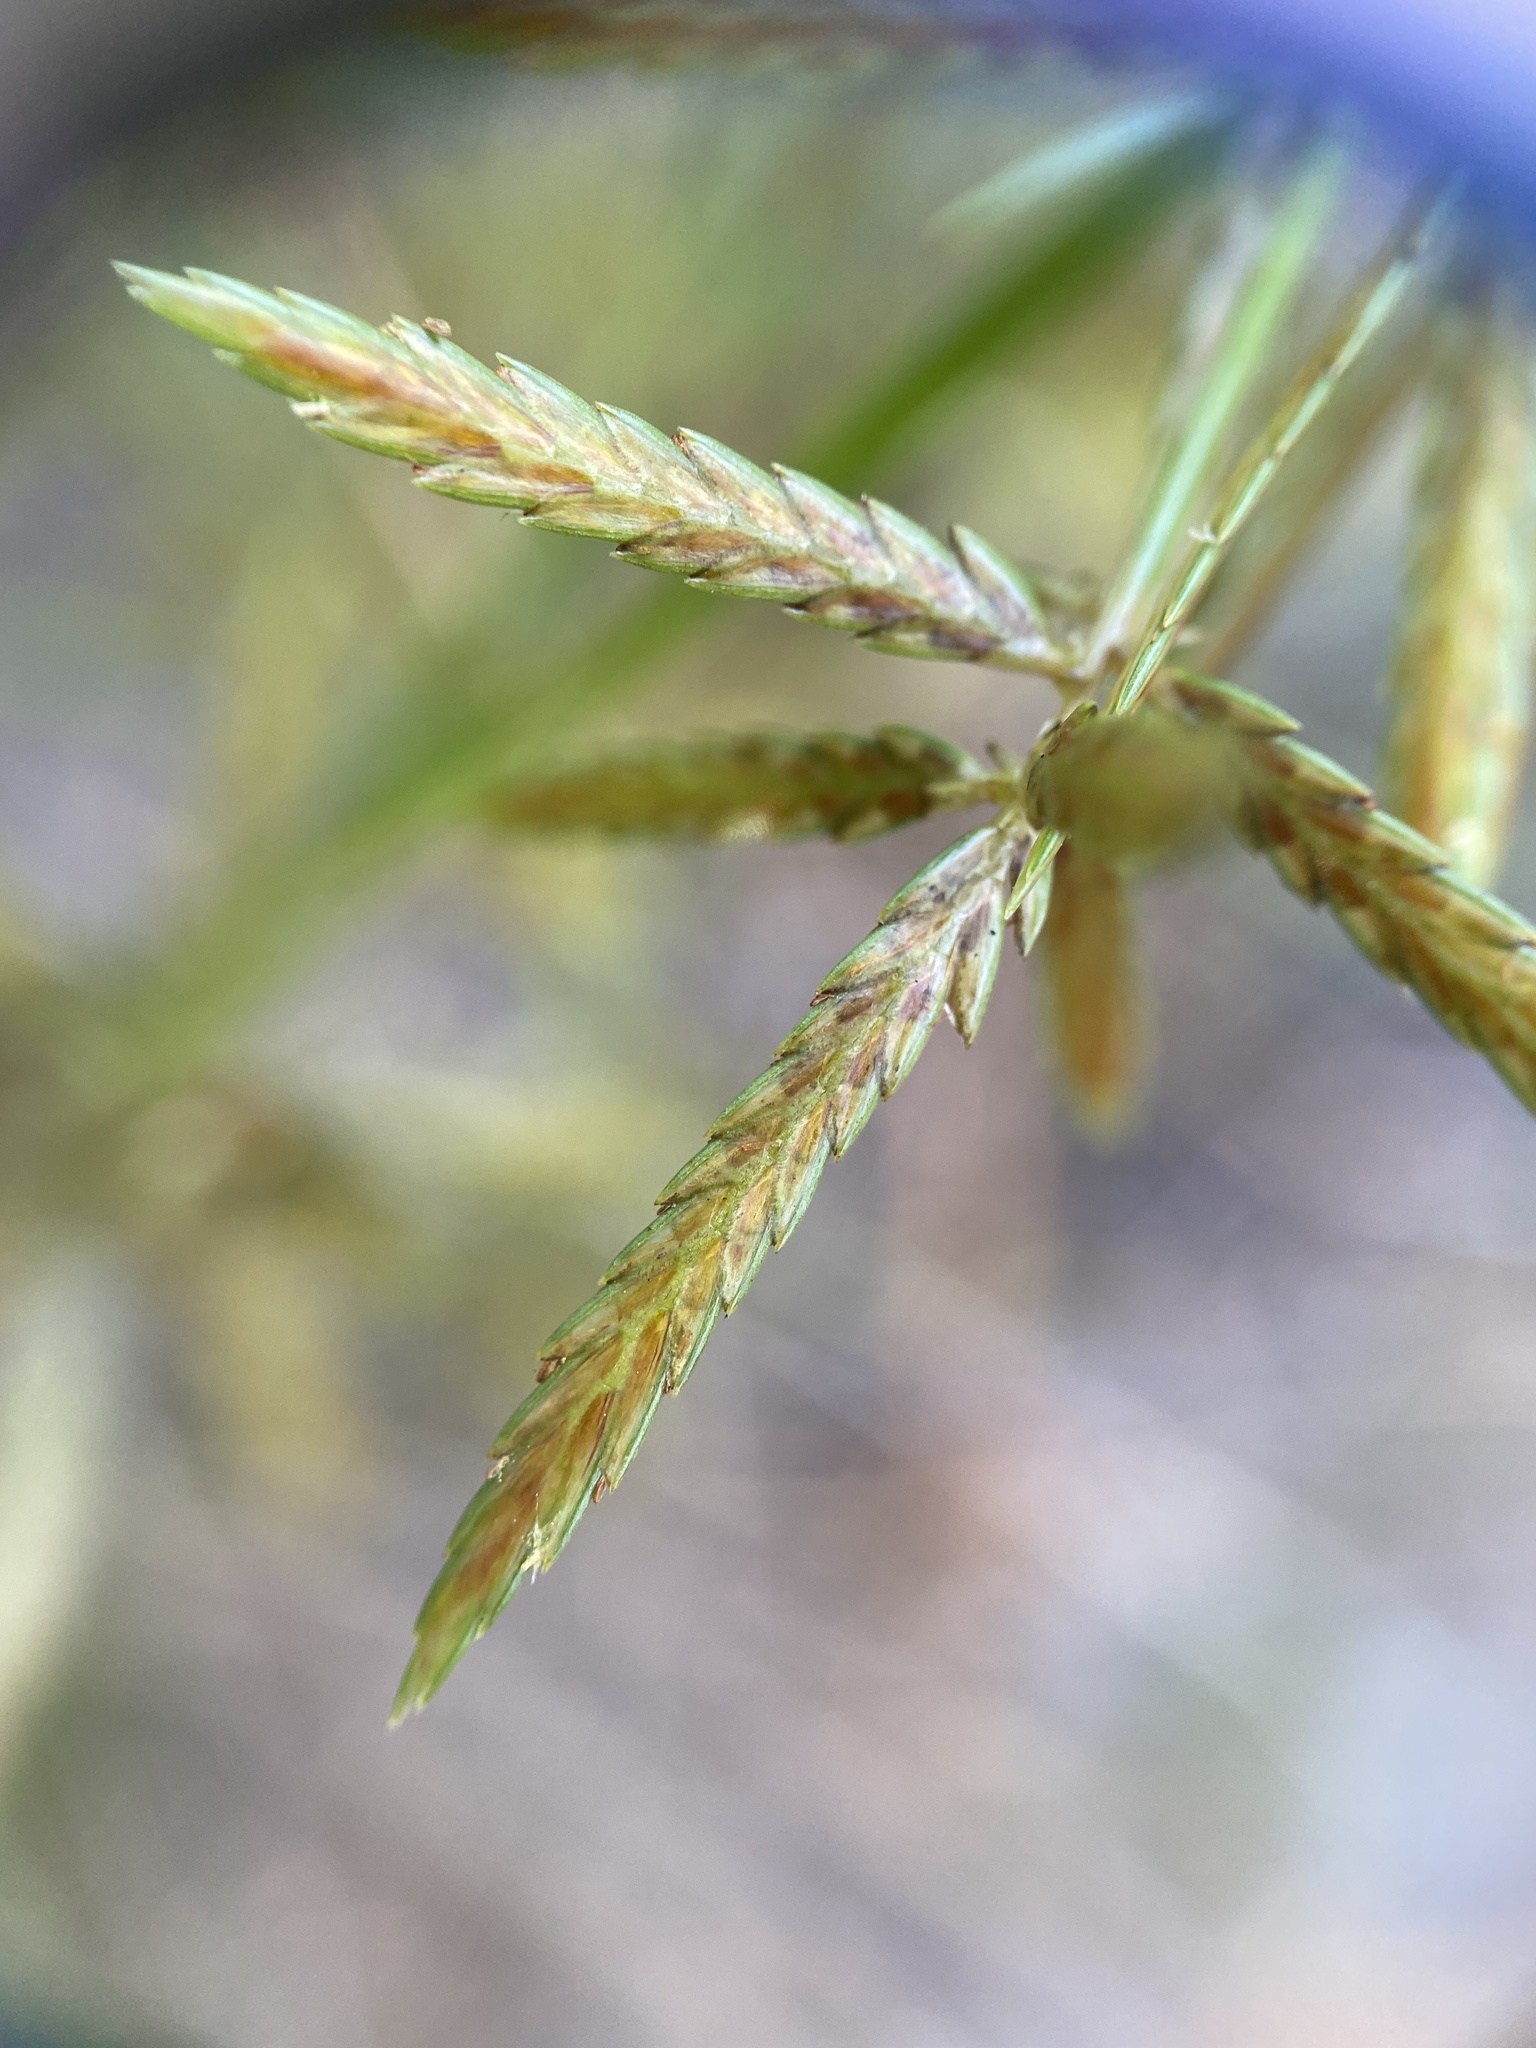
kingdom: Plantae
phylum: Tracheophyta
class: Liliopsida
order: Poales
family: Cyperaceae
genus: Cyperus
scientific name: Cyperus filicinus
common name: Fern flatsedge
